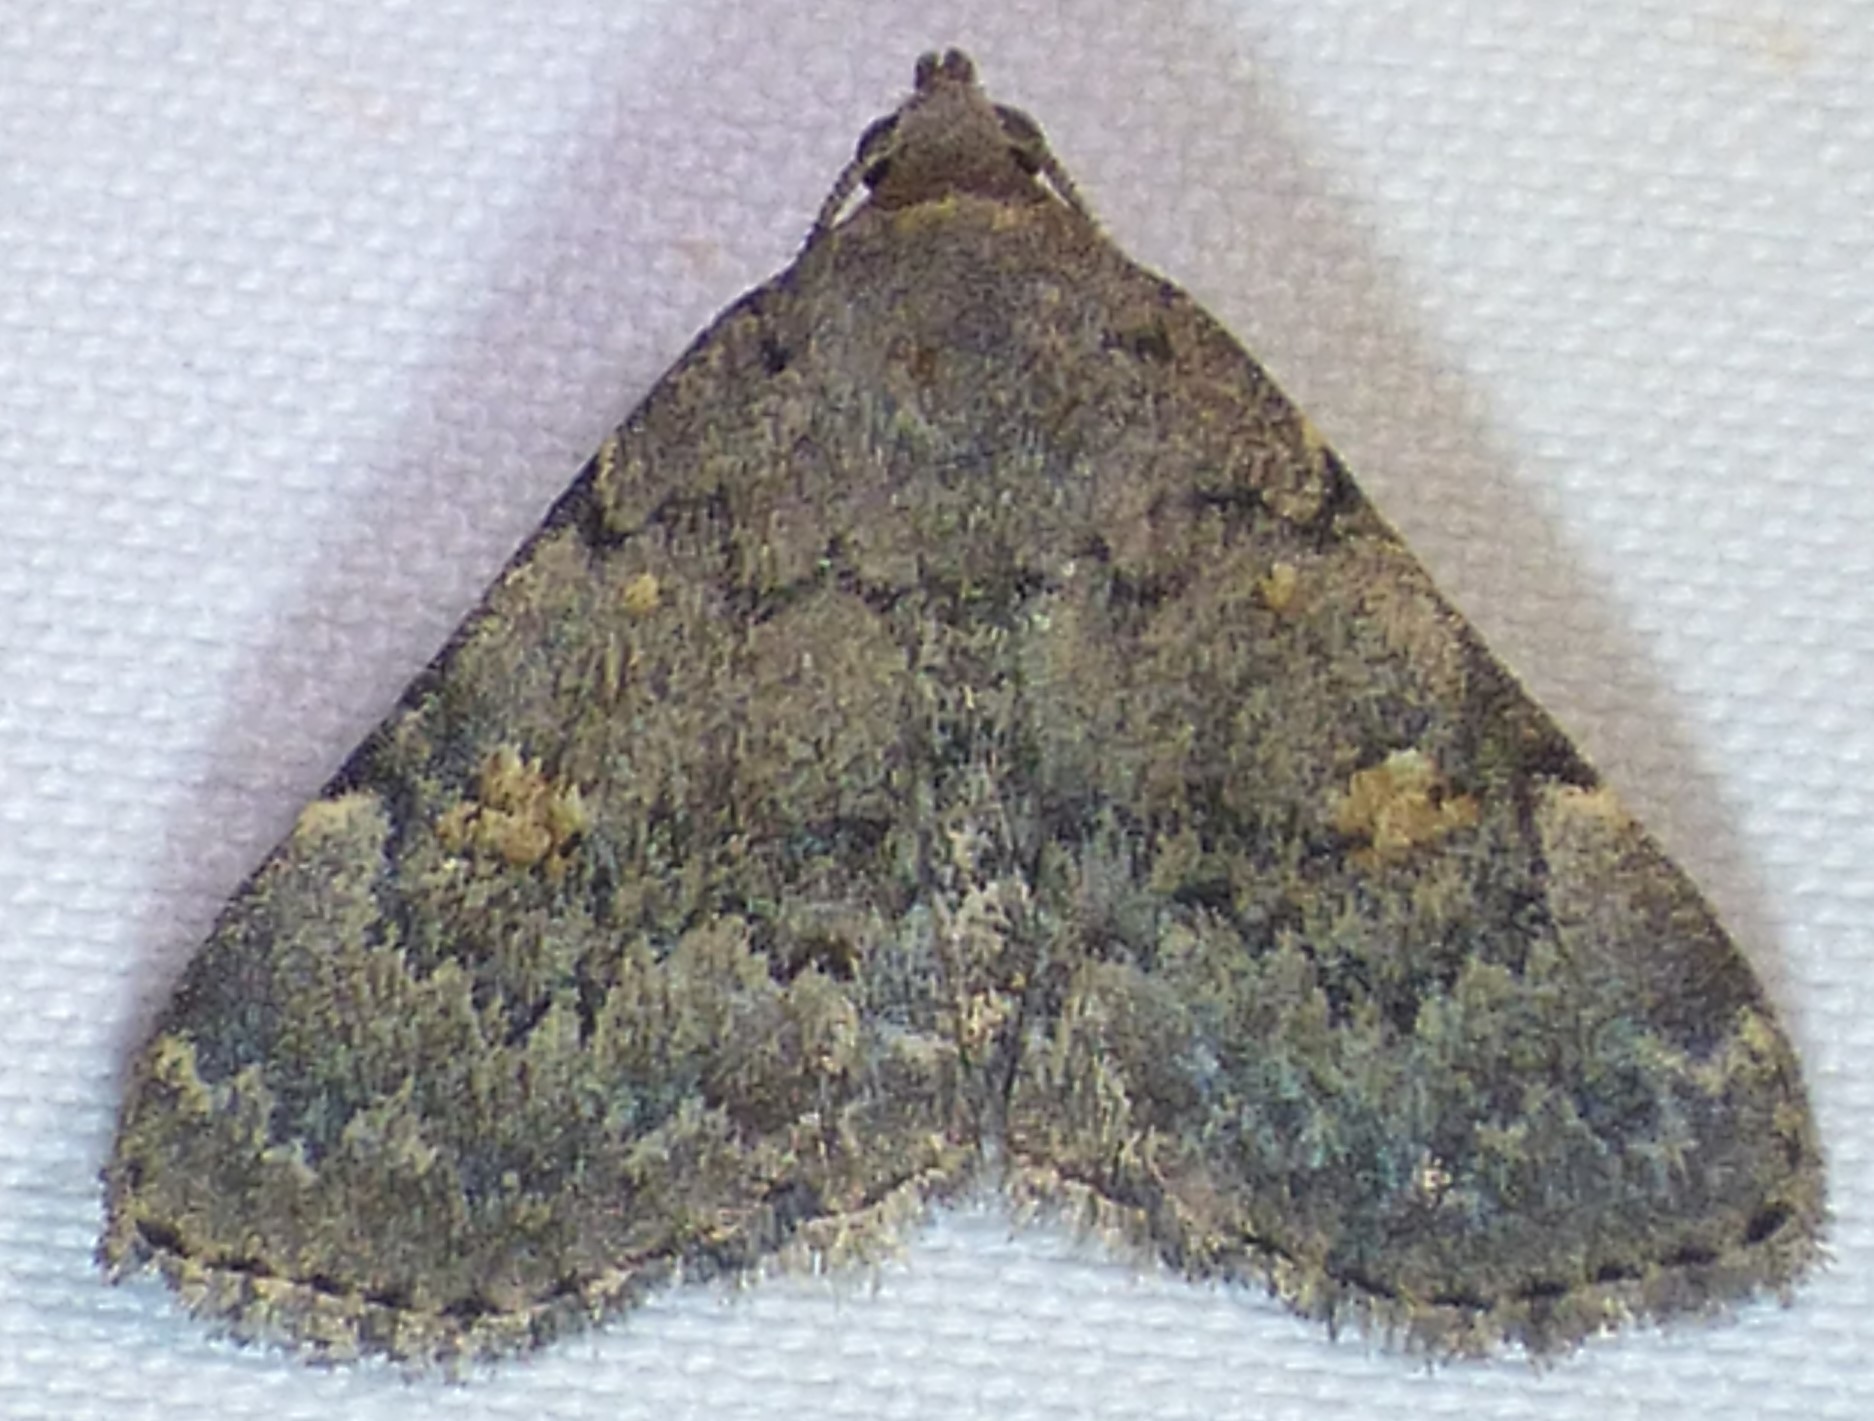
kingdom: Animalia
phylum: Arthropoda
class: Insecta
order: Lepidoptera
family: Erebidae
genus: Idia
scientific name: Idia aemula
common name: Common idia moth
